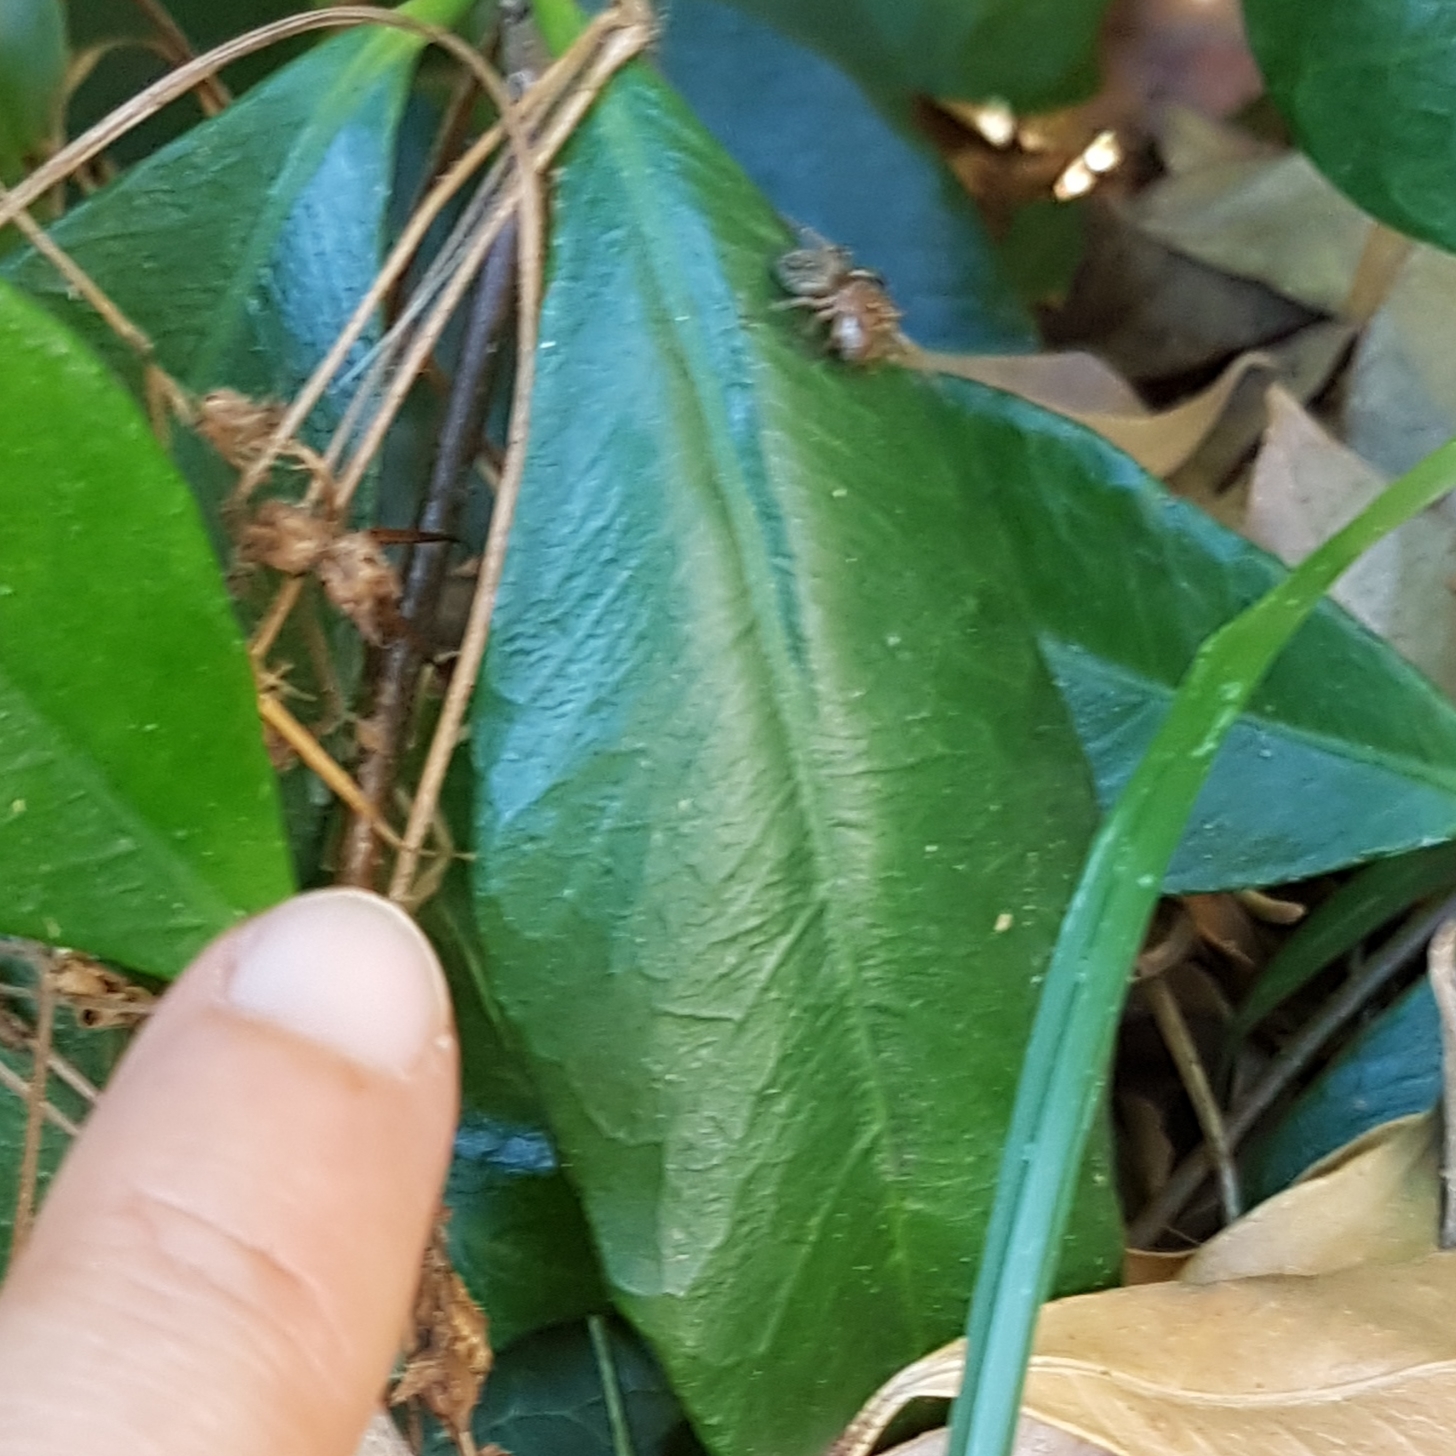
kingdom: Animalia
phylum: Arthropoda
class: Arachnida
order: Araneae
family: Salticidae
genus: Saitis
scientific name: Saitis barbipes
